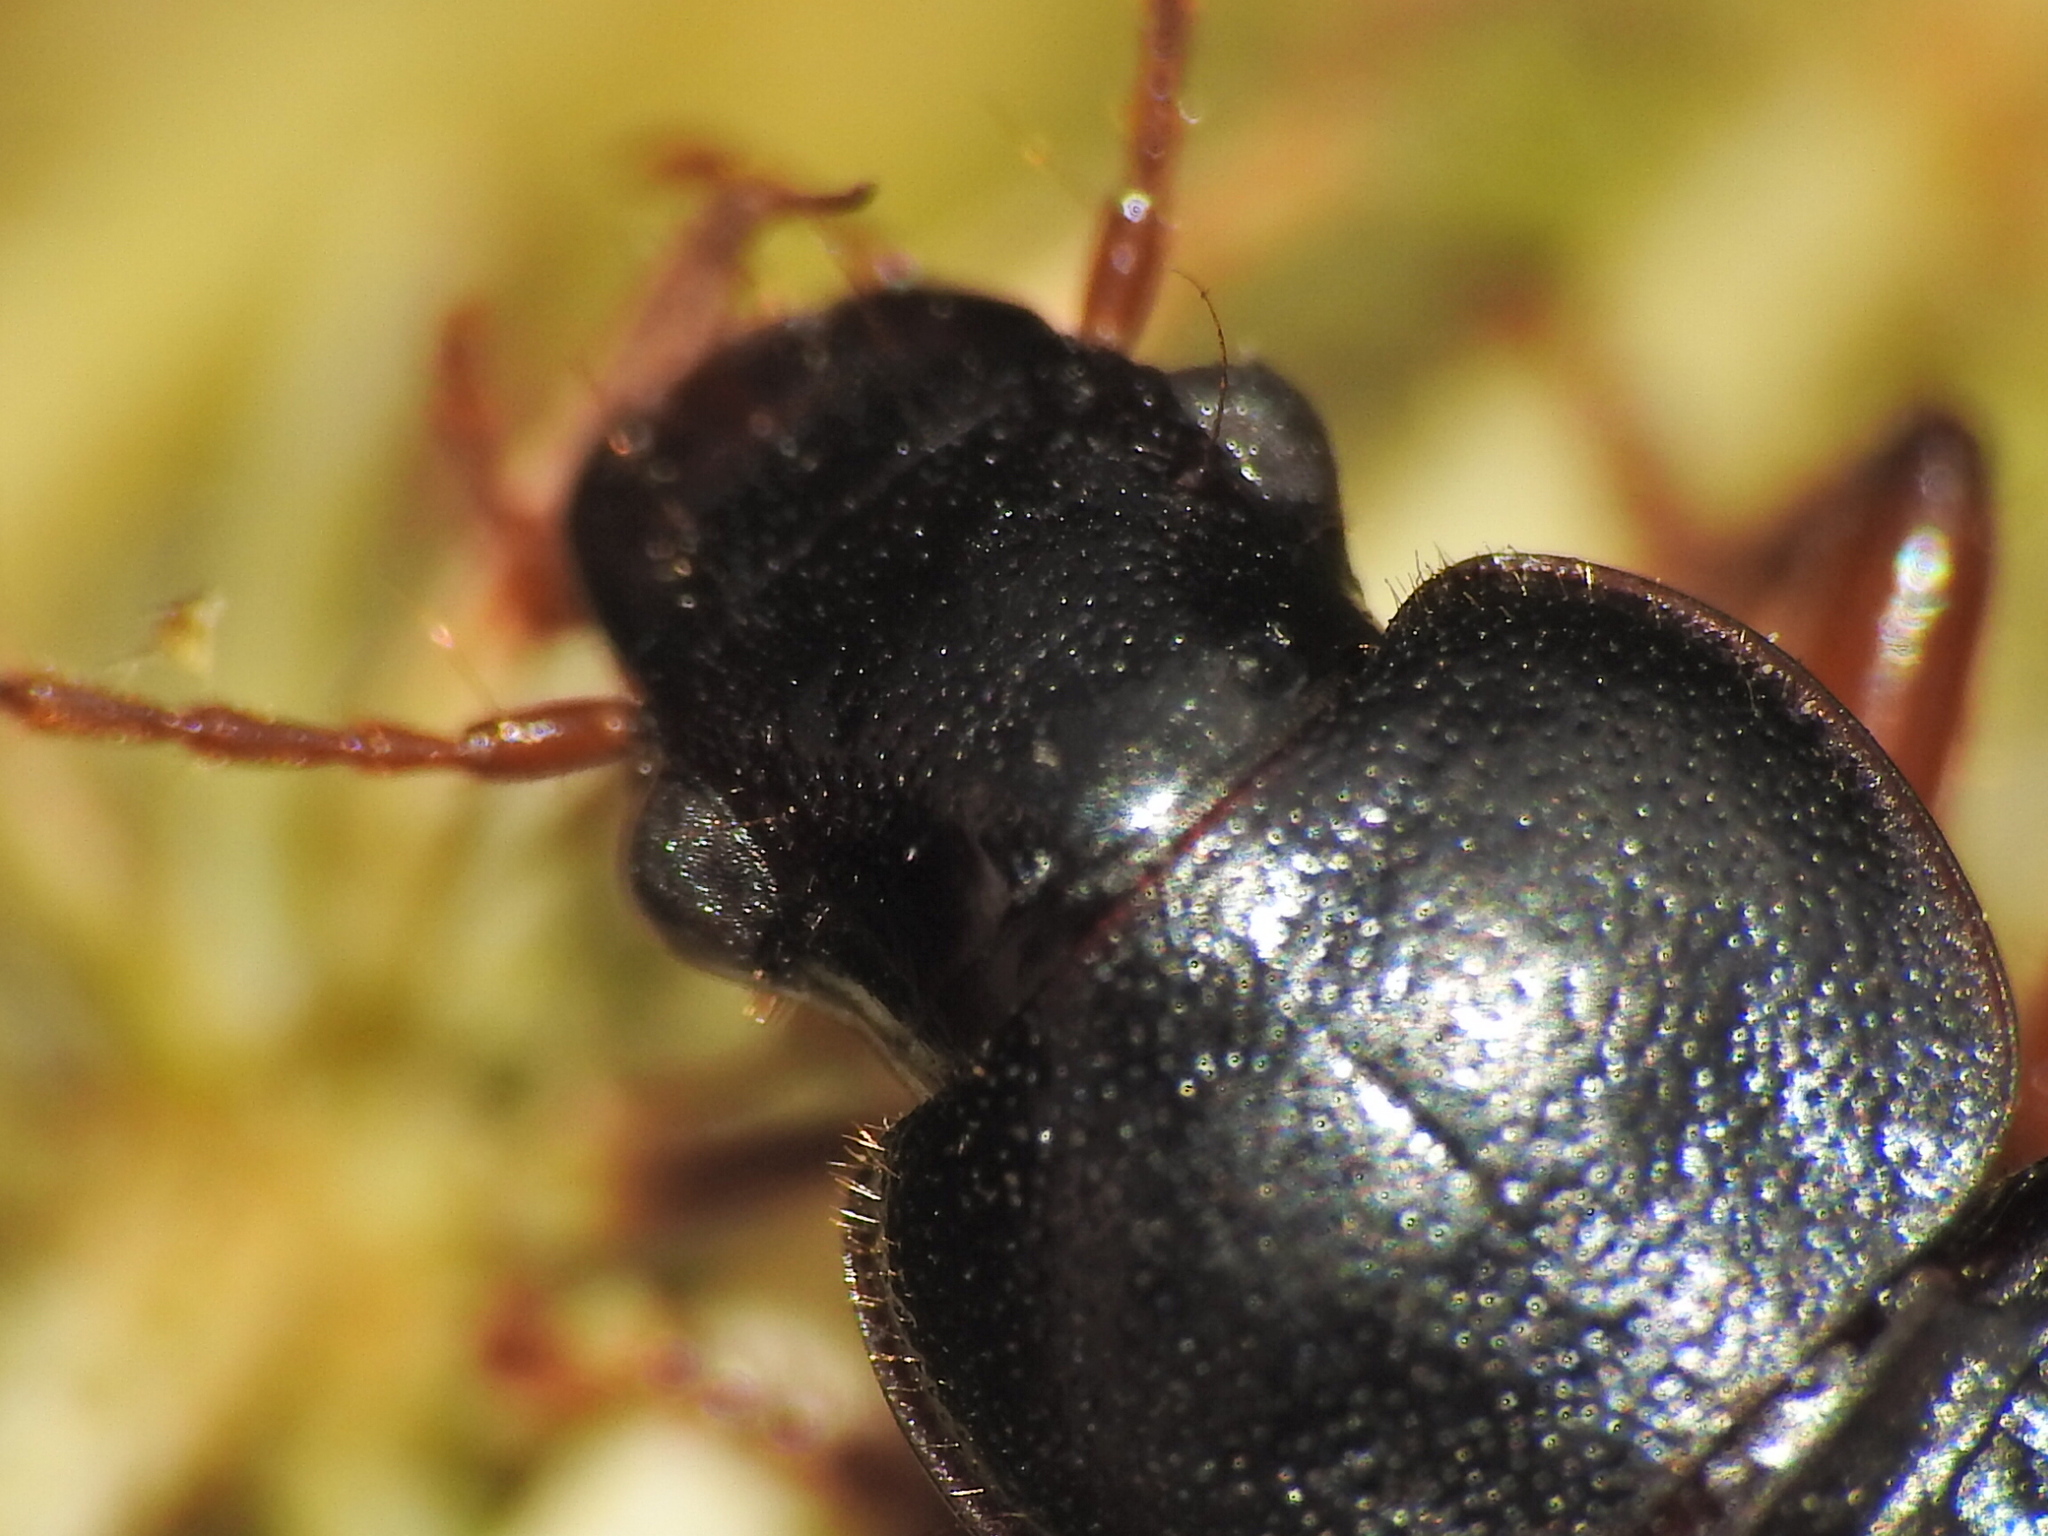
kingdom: Animalia
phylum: Arthropoda
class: Insecta
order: Coleoptera
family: Carabidae
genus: Ophonus
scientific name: Ophonus ardosiacus
